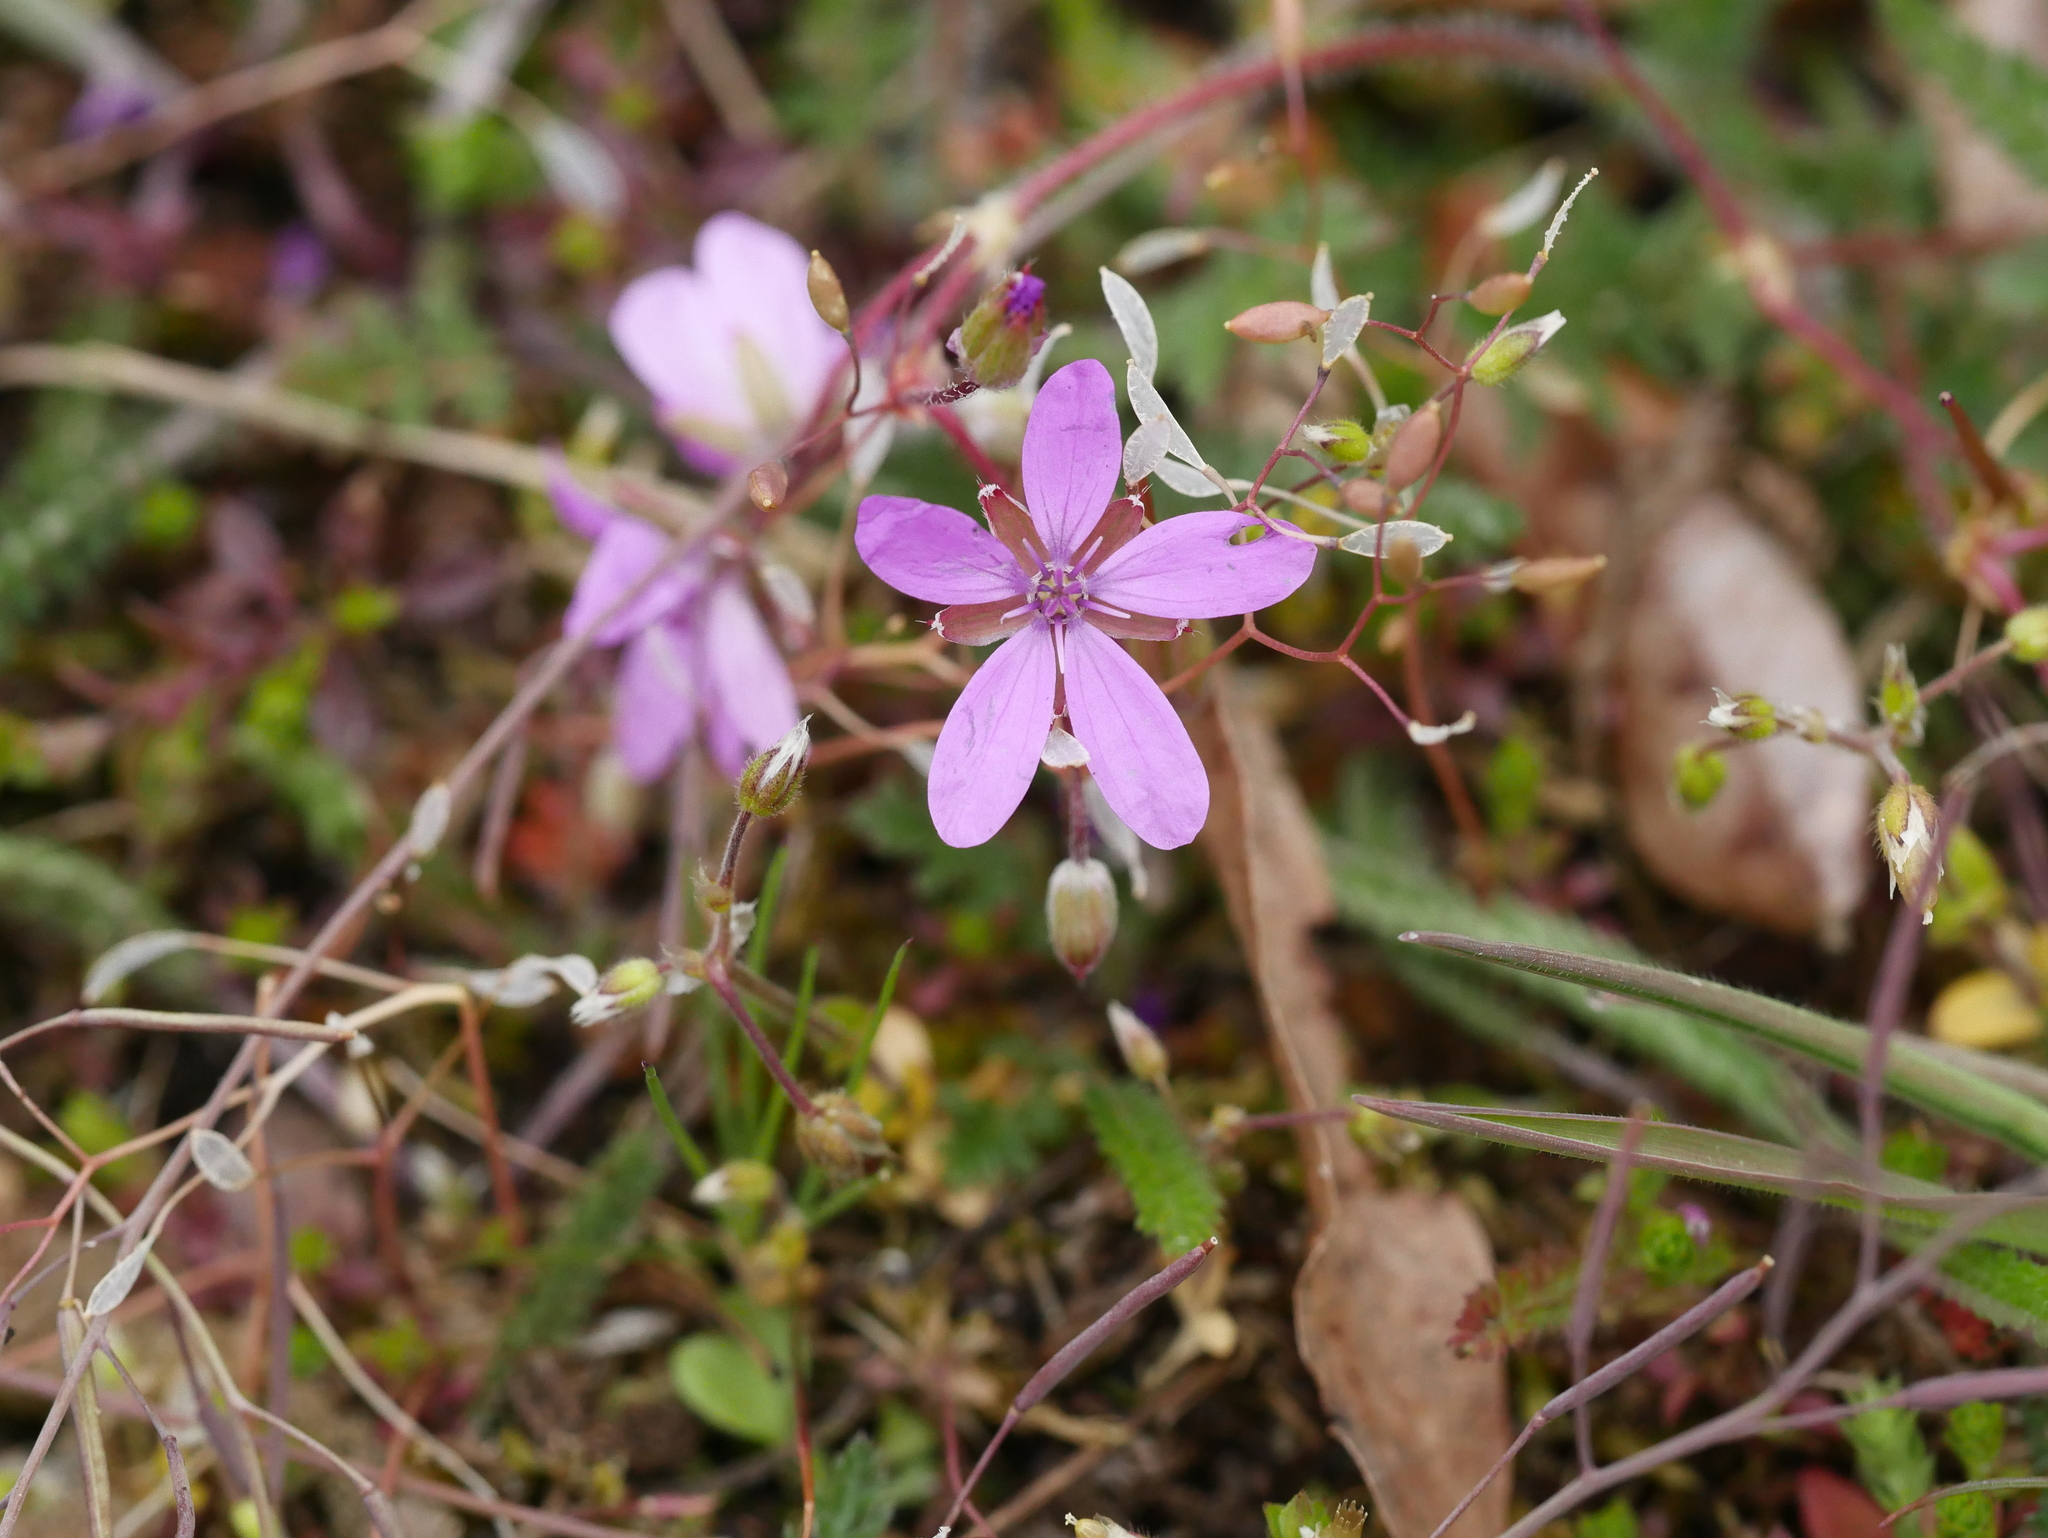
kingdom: Plantae
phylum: Tracheophyta
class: Magnoliopsida
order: Geraniales
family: Geraniaceae
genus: Erodium
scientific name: Erodium cicutarium
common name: Common stork's-bill
